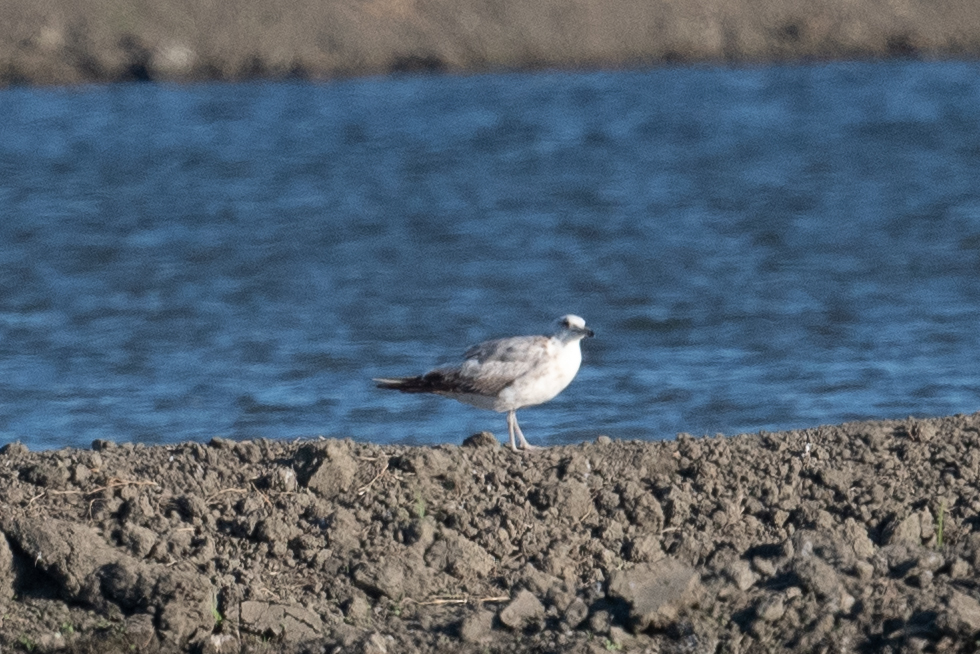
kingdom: Animalia
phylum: Chordata
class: Aves
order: Charadriiformes
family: Laridae
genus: Larus
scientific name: Larus californicus
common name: California gull
